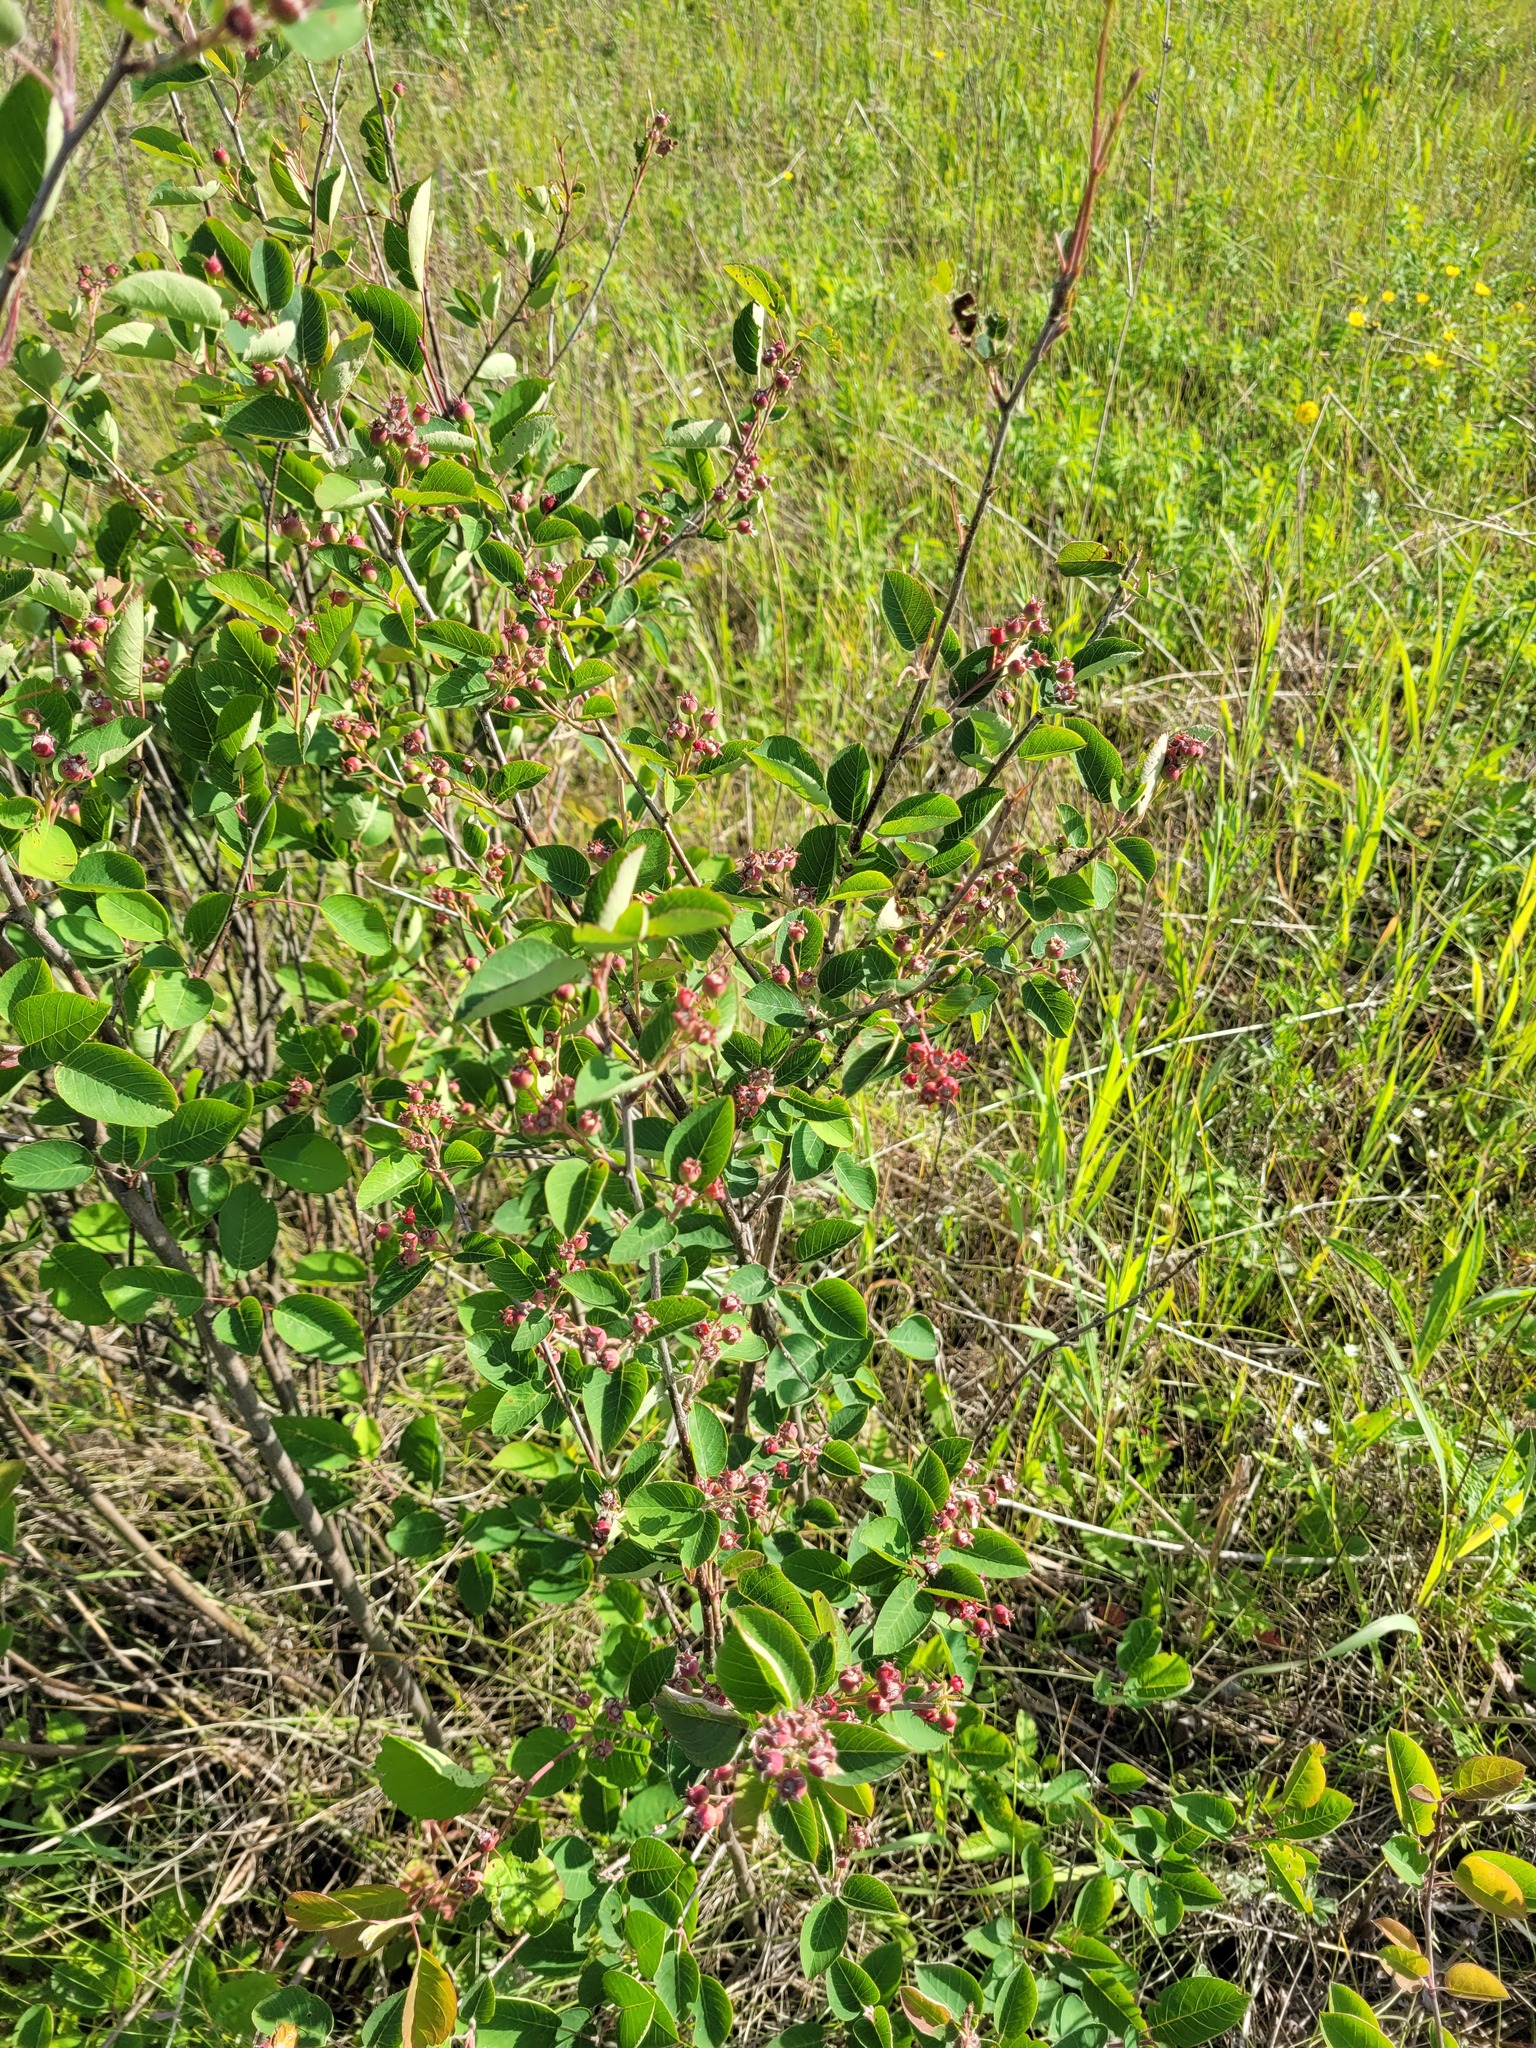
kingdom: Plantae
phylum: Tracheophyta
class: Magnoliopsida
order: Rosales
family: Rosaceae
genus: Amelanchier
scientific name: Amelanchier
